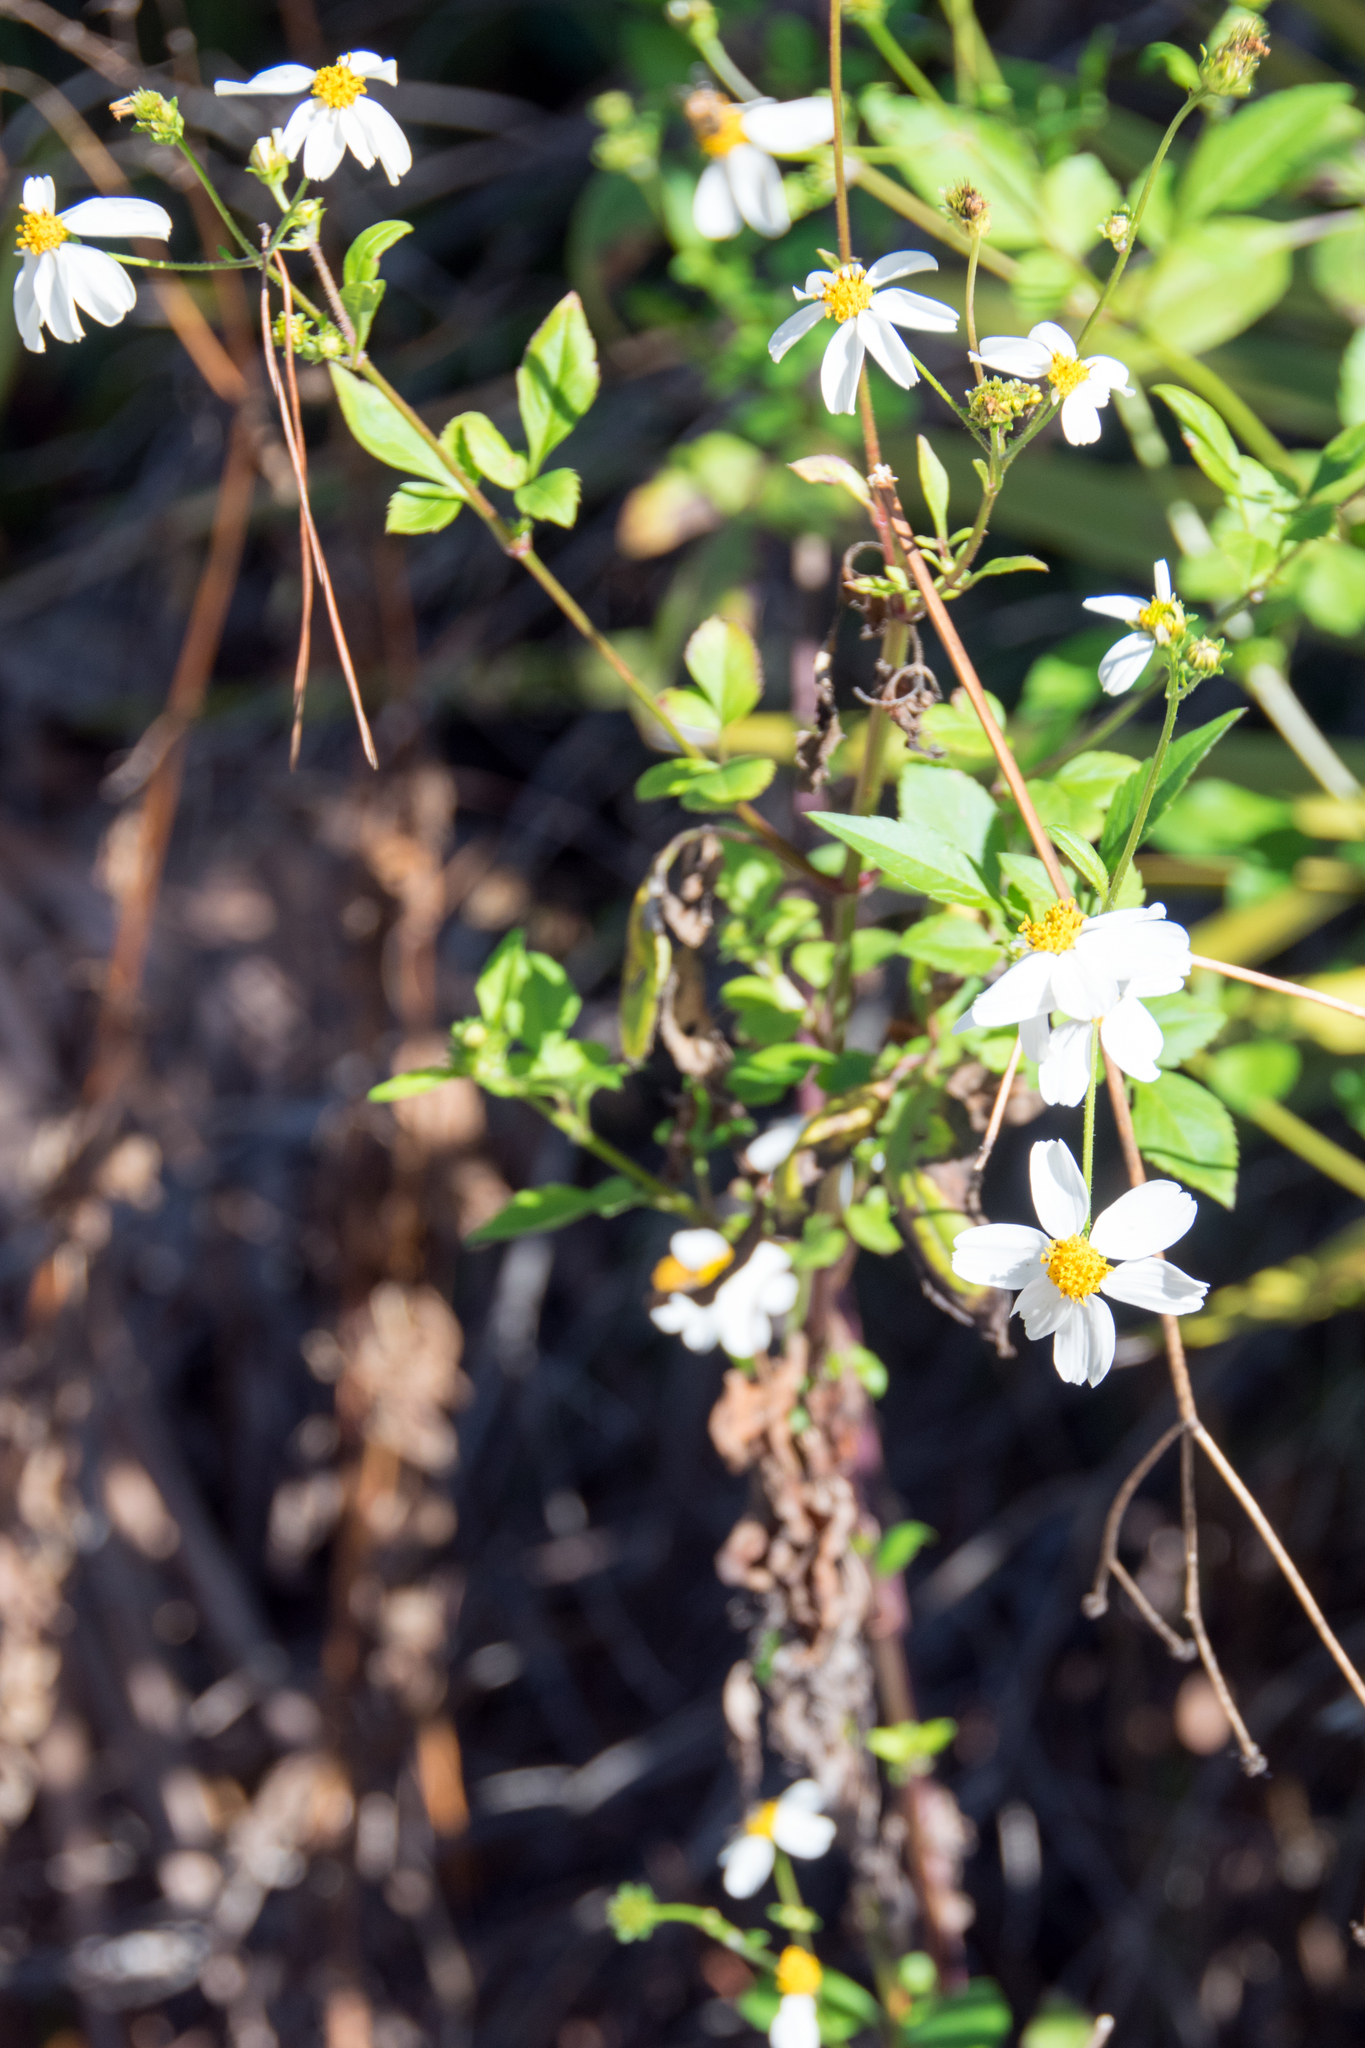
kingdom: Plantae
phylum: Tracheophyta
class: Magnoliopsida
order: Asterales
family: Asteraceae
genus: Bidens
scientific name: Bidens alba
